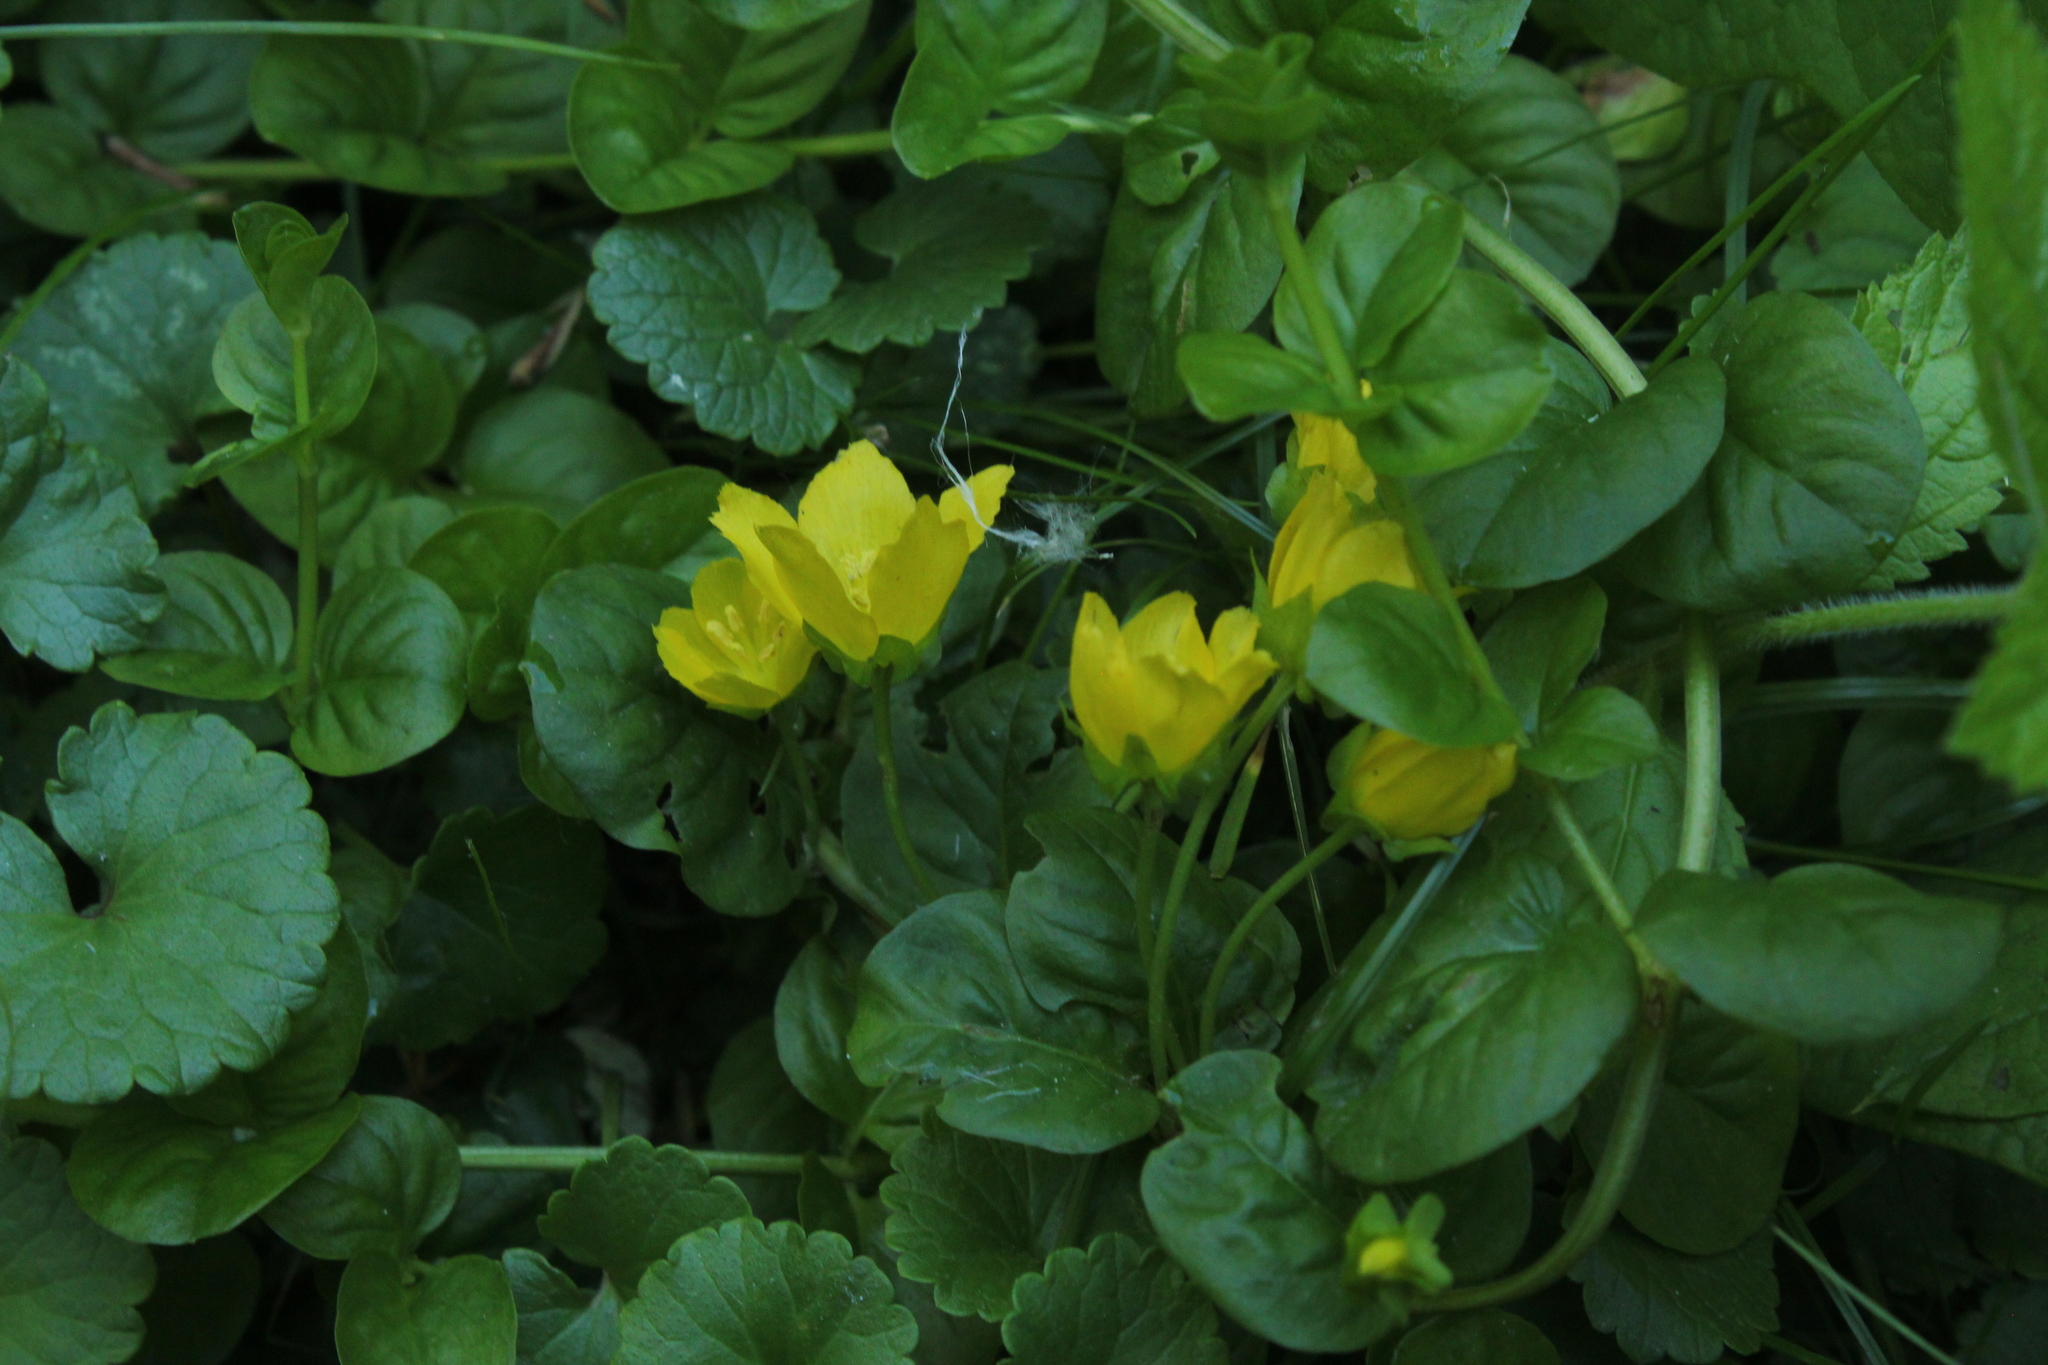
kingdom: Plantae
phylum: Tracheophyta
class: Magnoliopsida
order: Ericales
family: Primulaceae
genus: Lysimachia
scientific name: Lysimachia nummularia
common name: Moneywort
